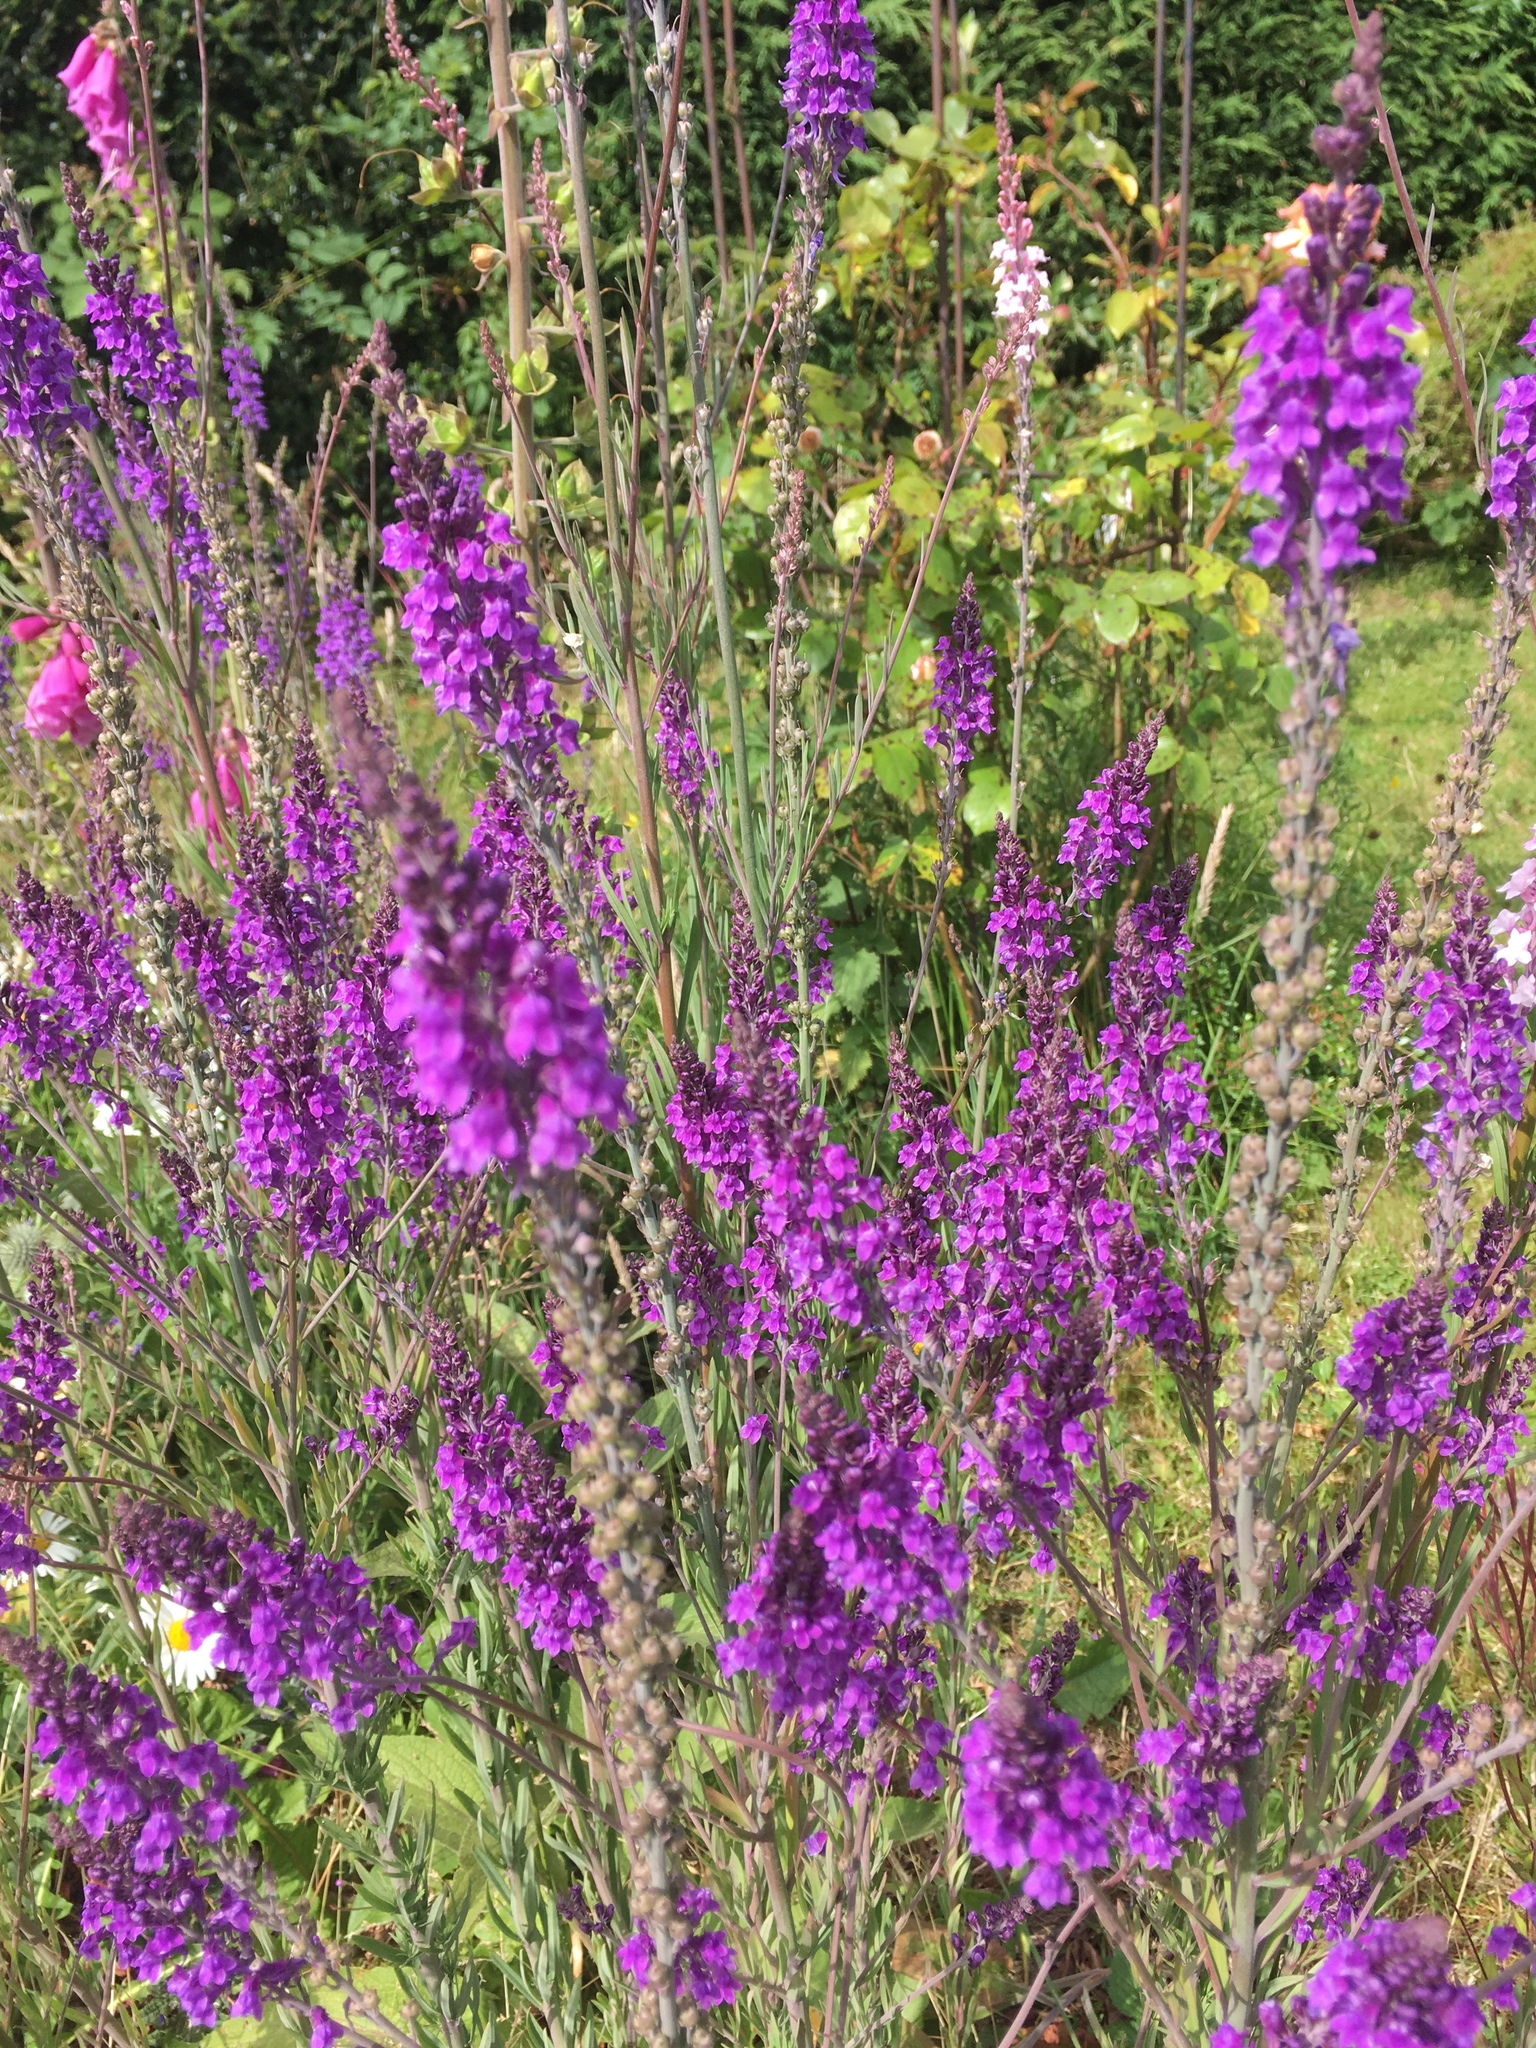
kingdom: Plantae
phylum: Tracheophyta
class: Magnoliopsida
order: Lamiales
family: Plantaginaceae
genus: Linaria
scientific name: Linaria purpurea
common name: Purple toadflax
